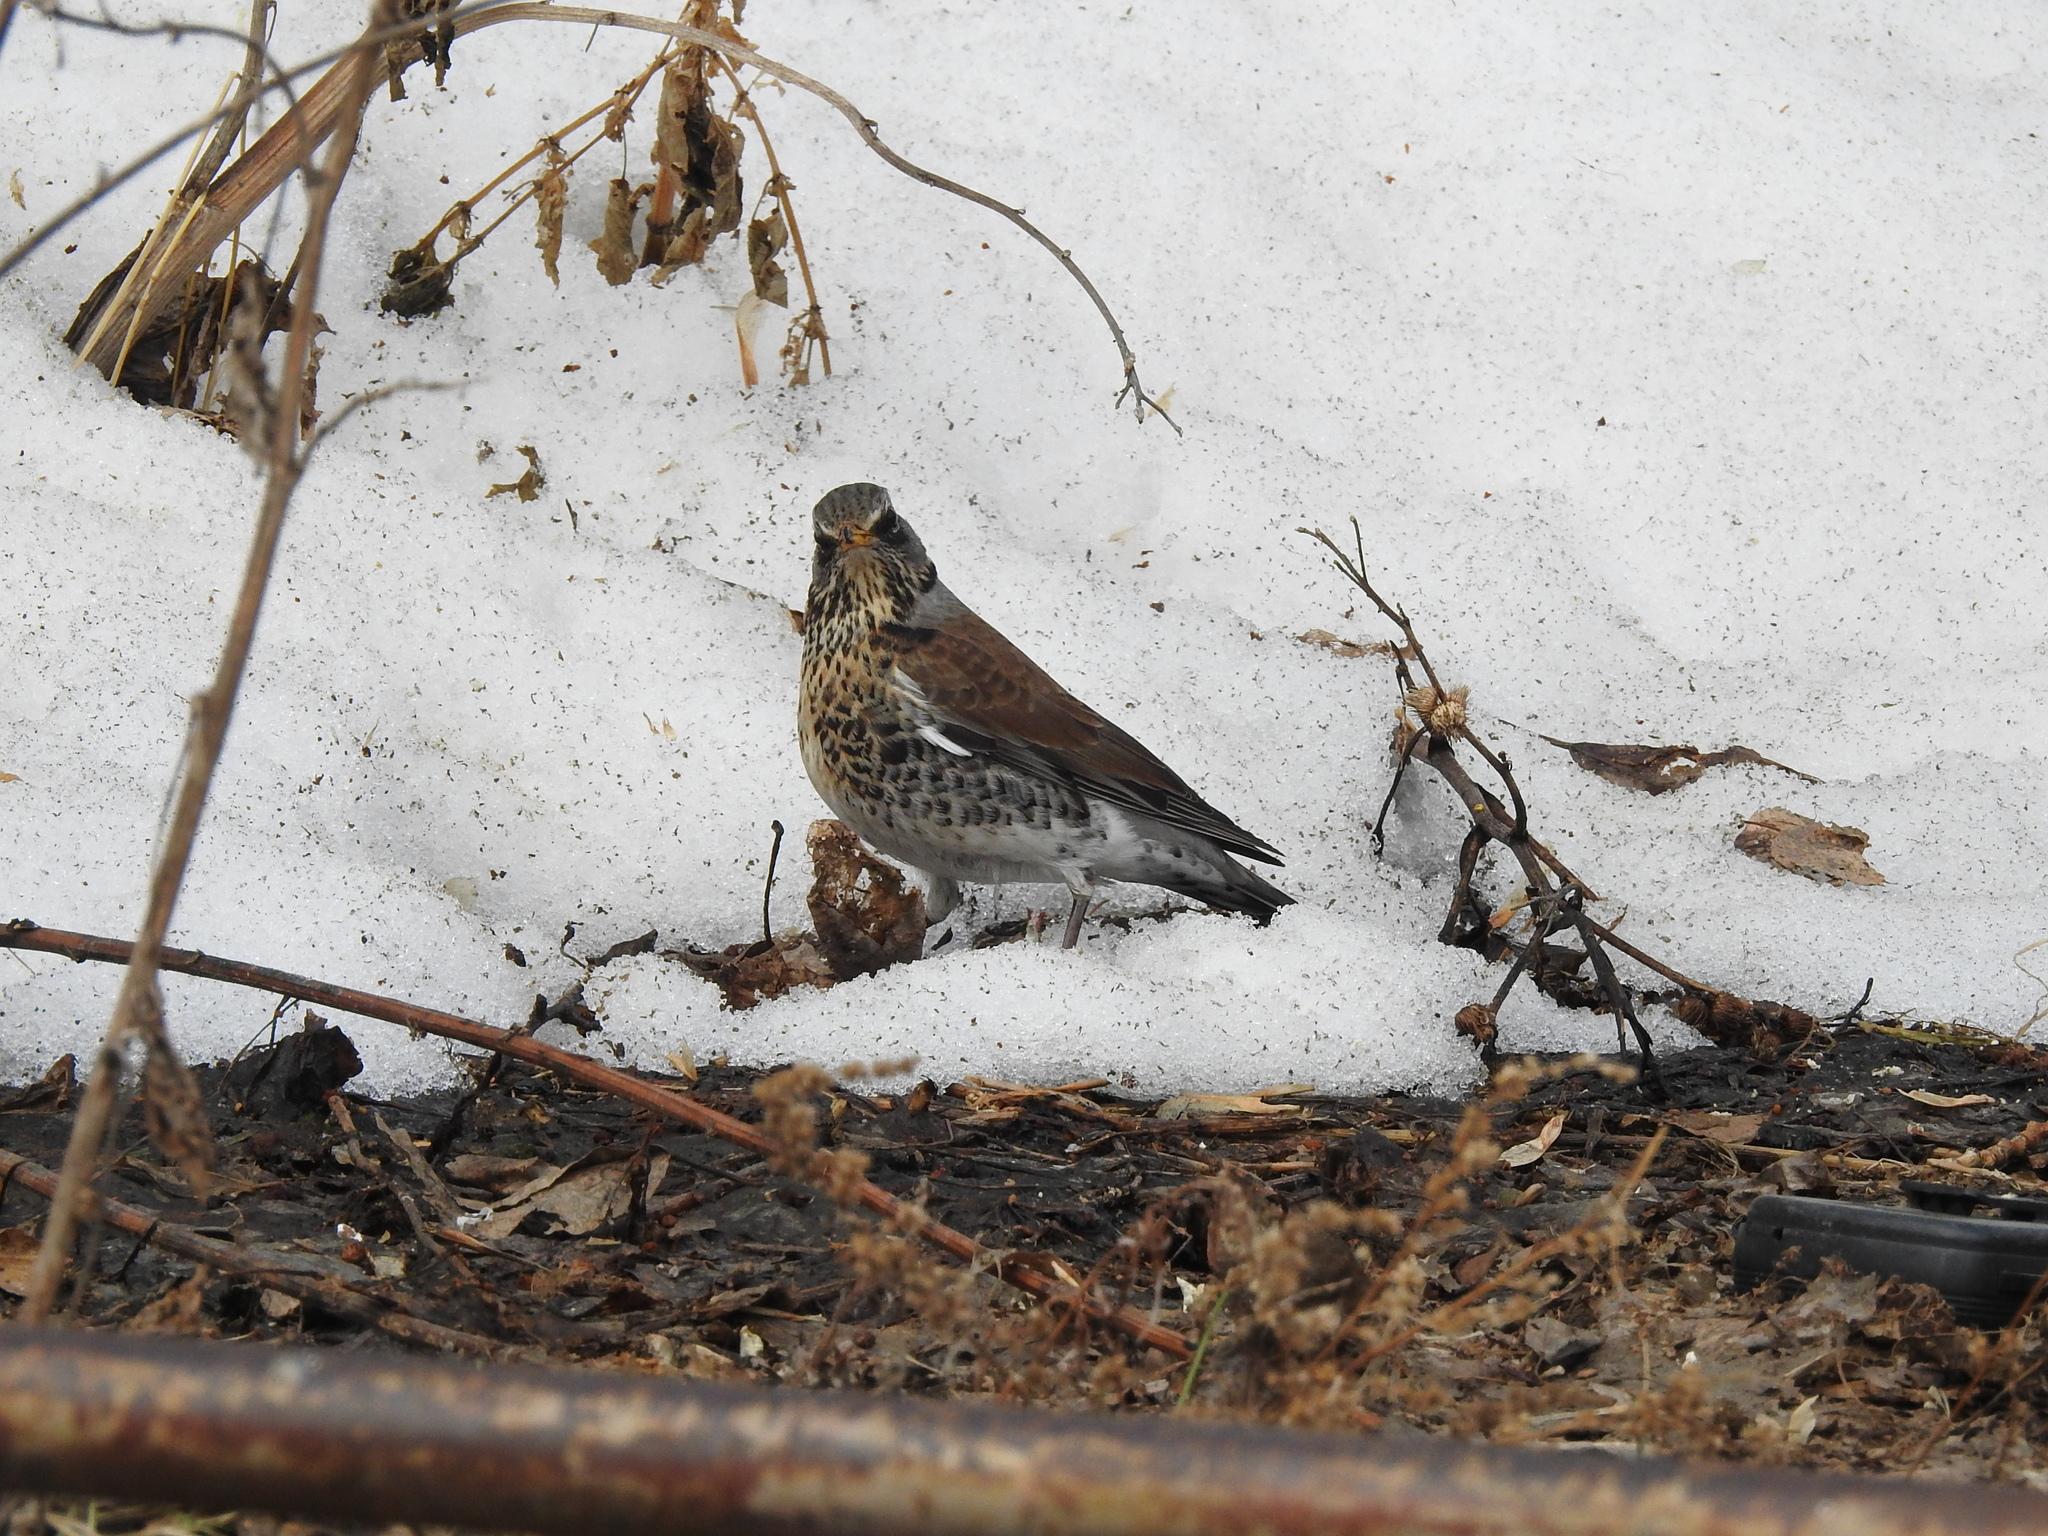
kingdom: Animalia
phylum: Chordata
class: Aves
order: Passeriformes
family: Turdidae
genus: Turdus
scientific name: Turdus pilaris
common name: Fieldfare
